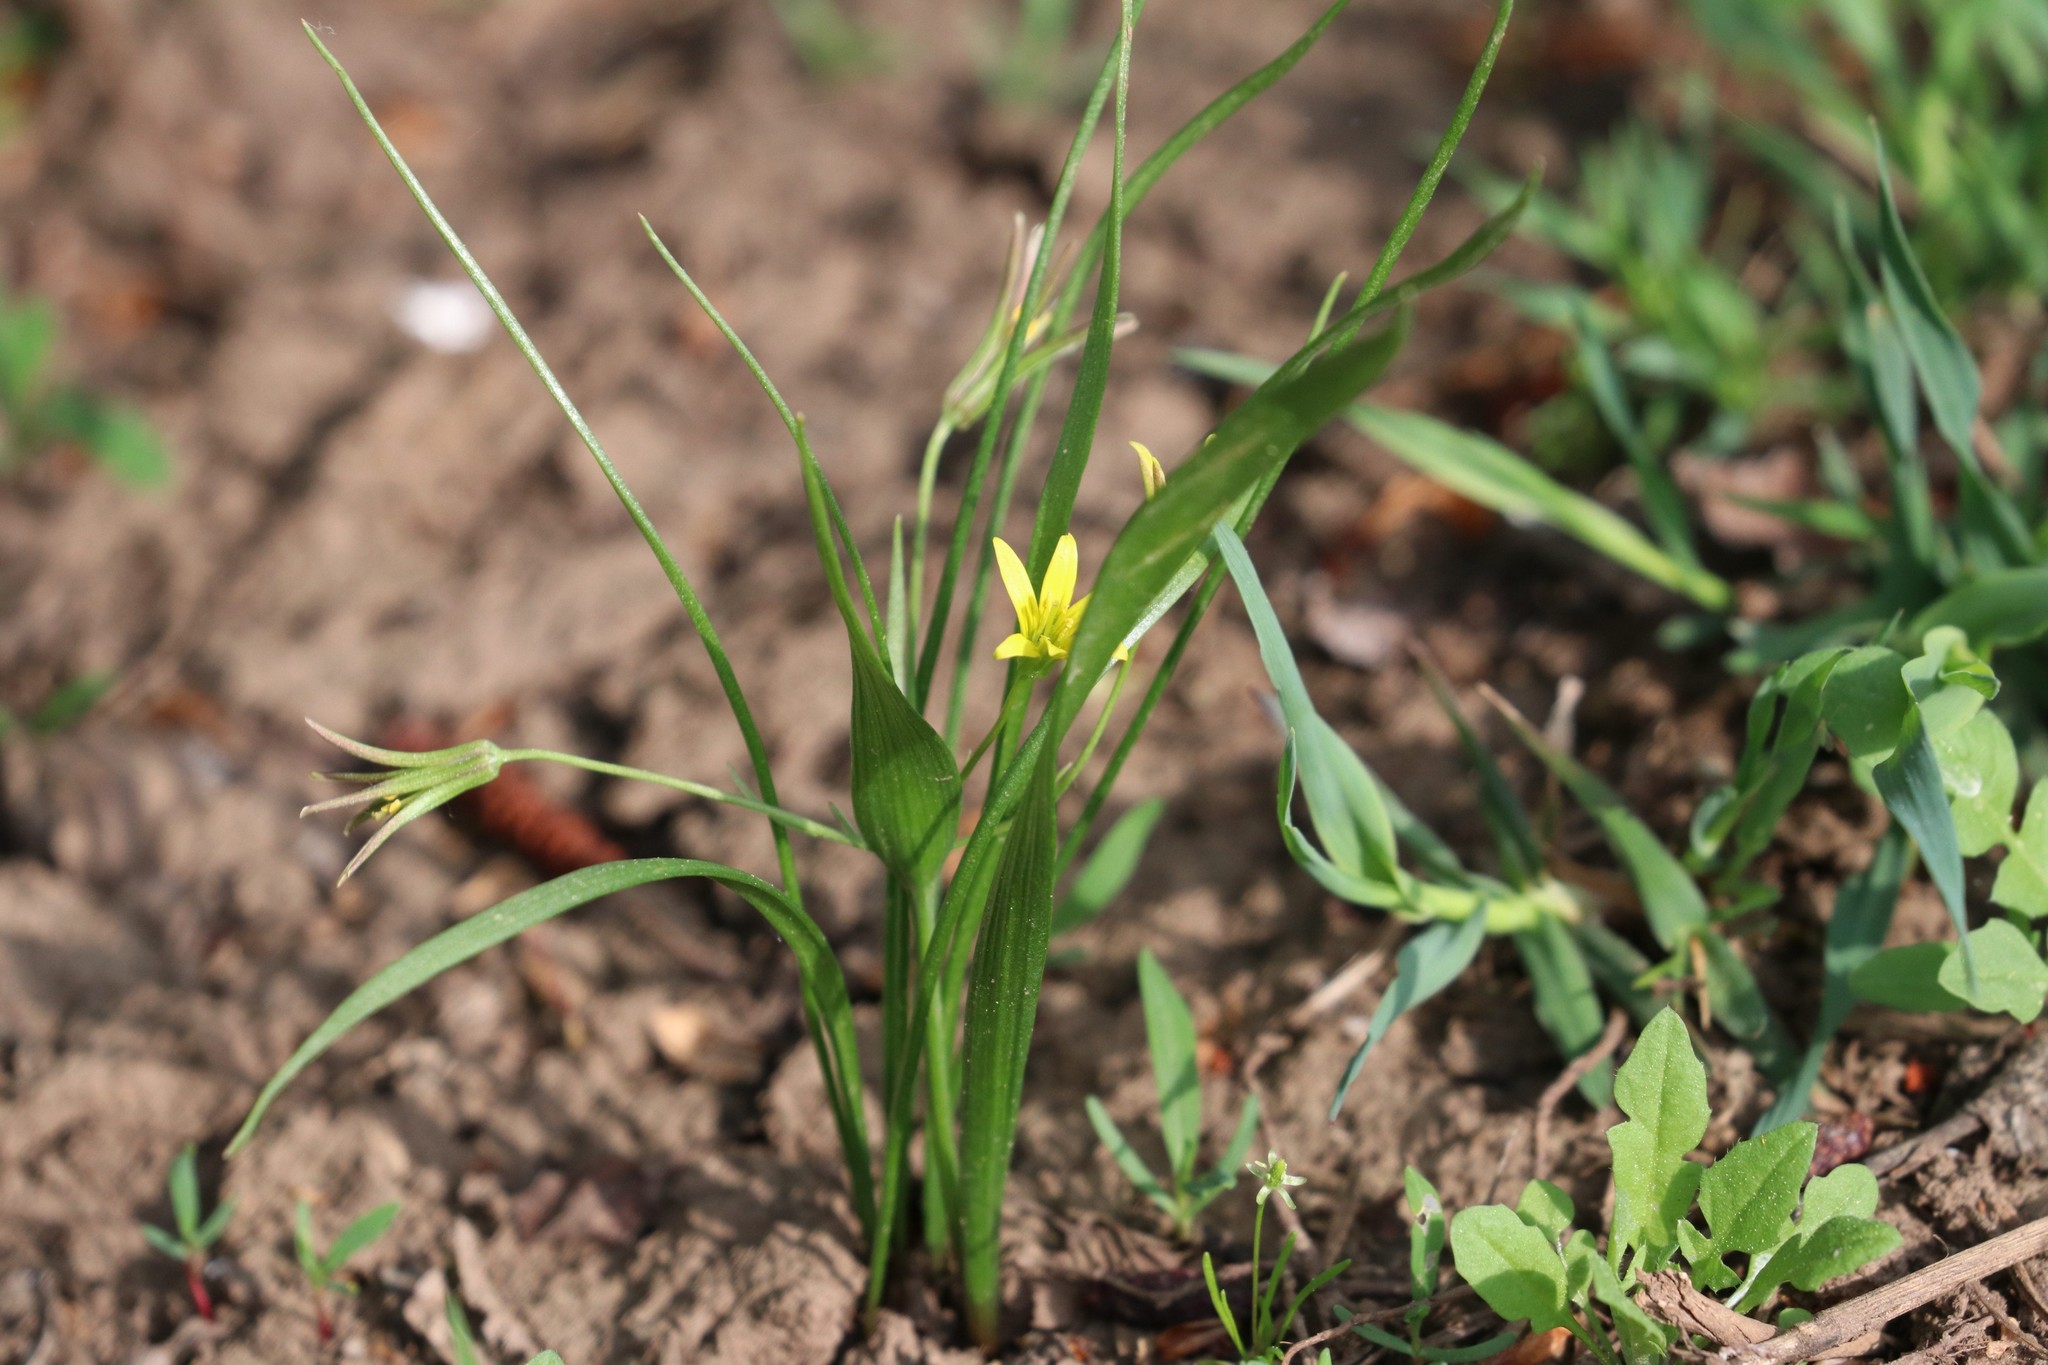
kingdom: Plantae
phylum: Tracheophyta
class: Liliopsida
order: Liliales
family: Liliaceae
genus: Gagea
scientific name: Gagea minima
